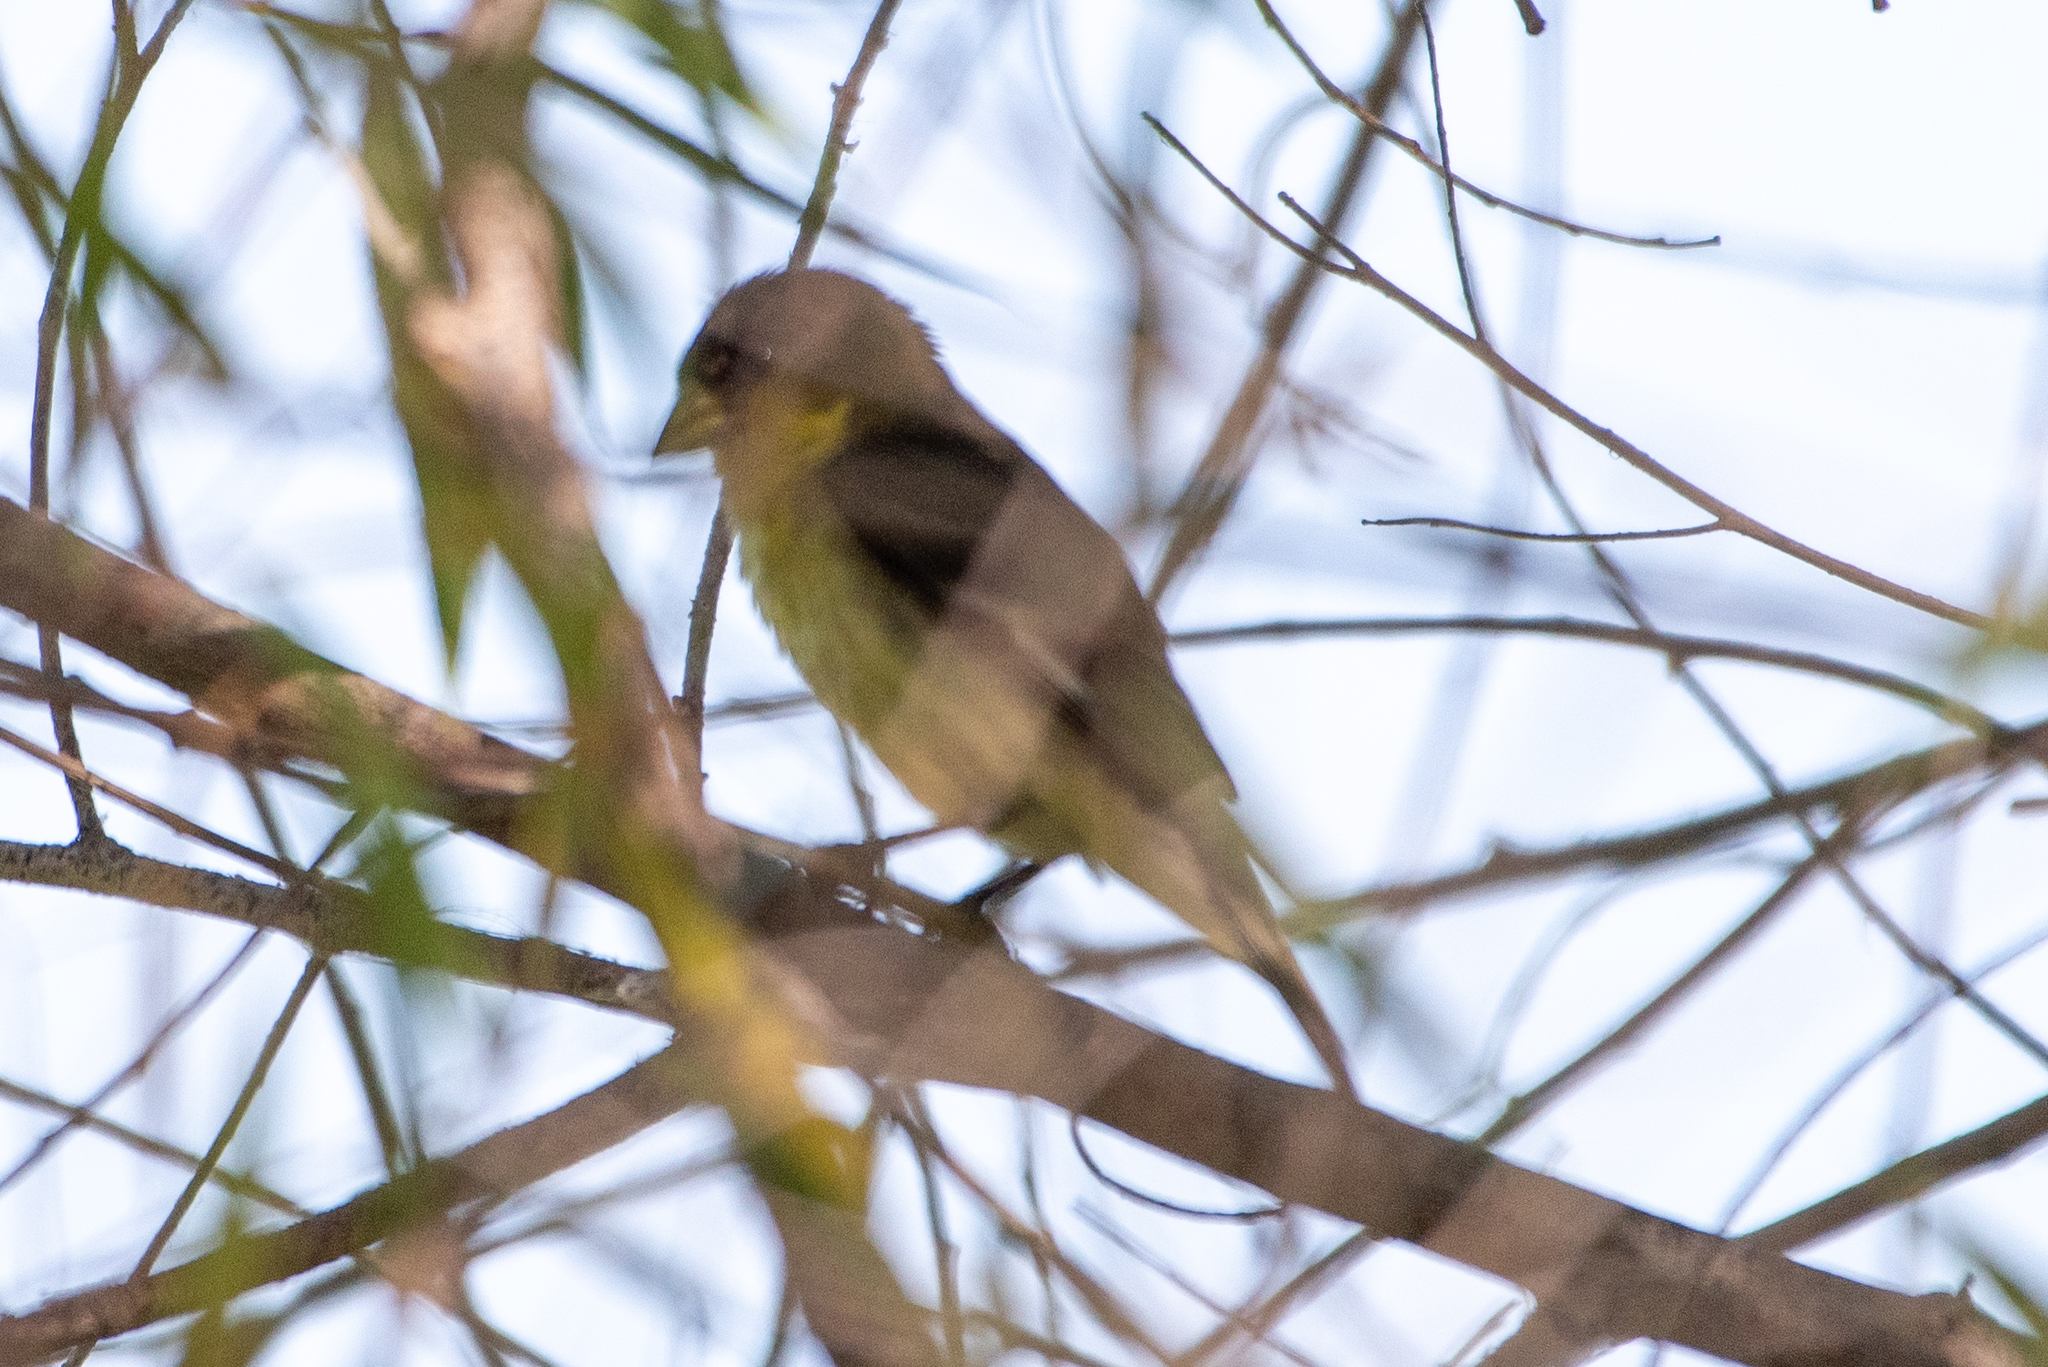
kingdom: Animalia
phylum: Chordata
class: Aves
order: Passeriformes
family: Fringillidae
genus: Spinus
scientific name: Spinus psaltria
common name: Lesser goldfinch
